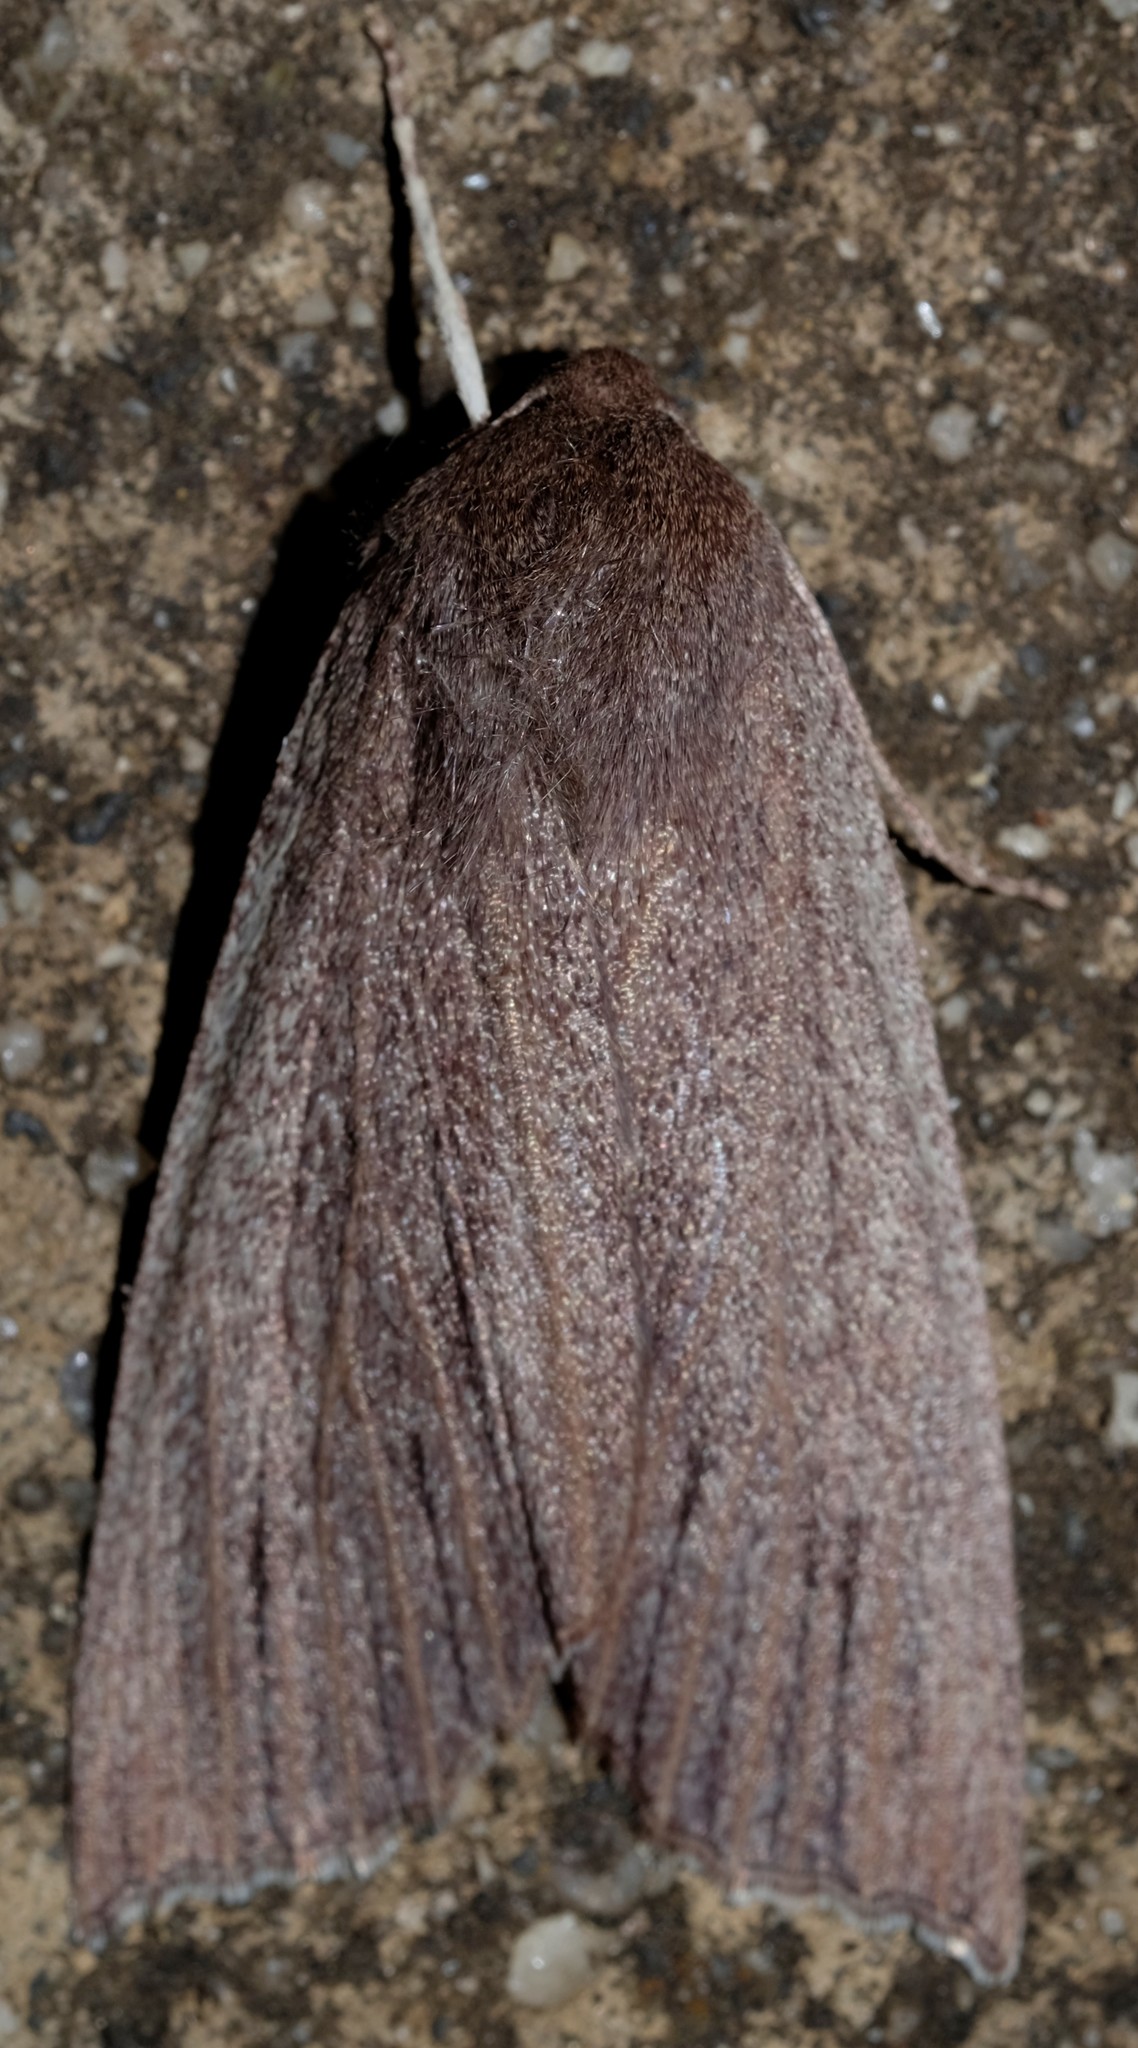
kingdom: Animalia
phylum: Arthropoda
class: Insecta
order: Lepidoptera
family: Geometridae
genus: Palleopa
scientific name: Palleopa innotata
